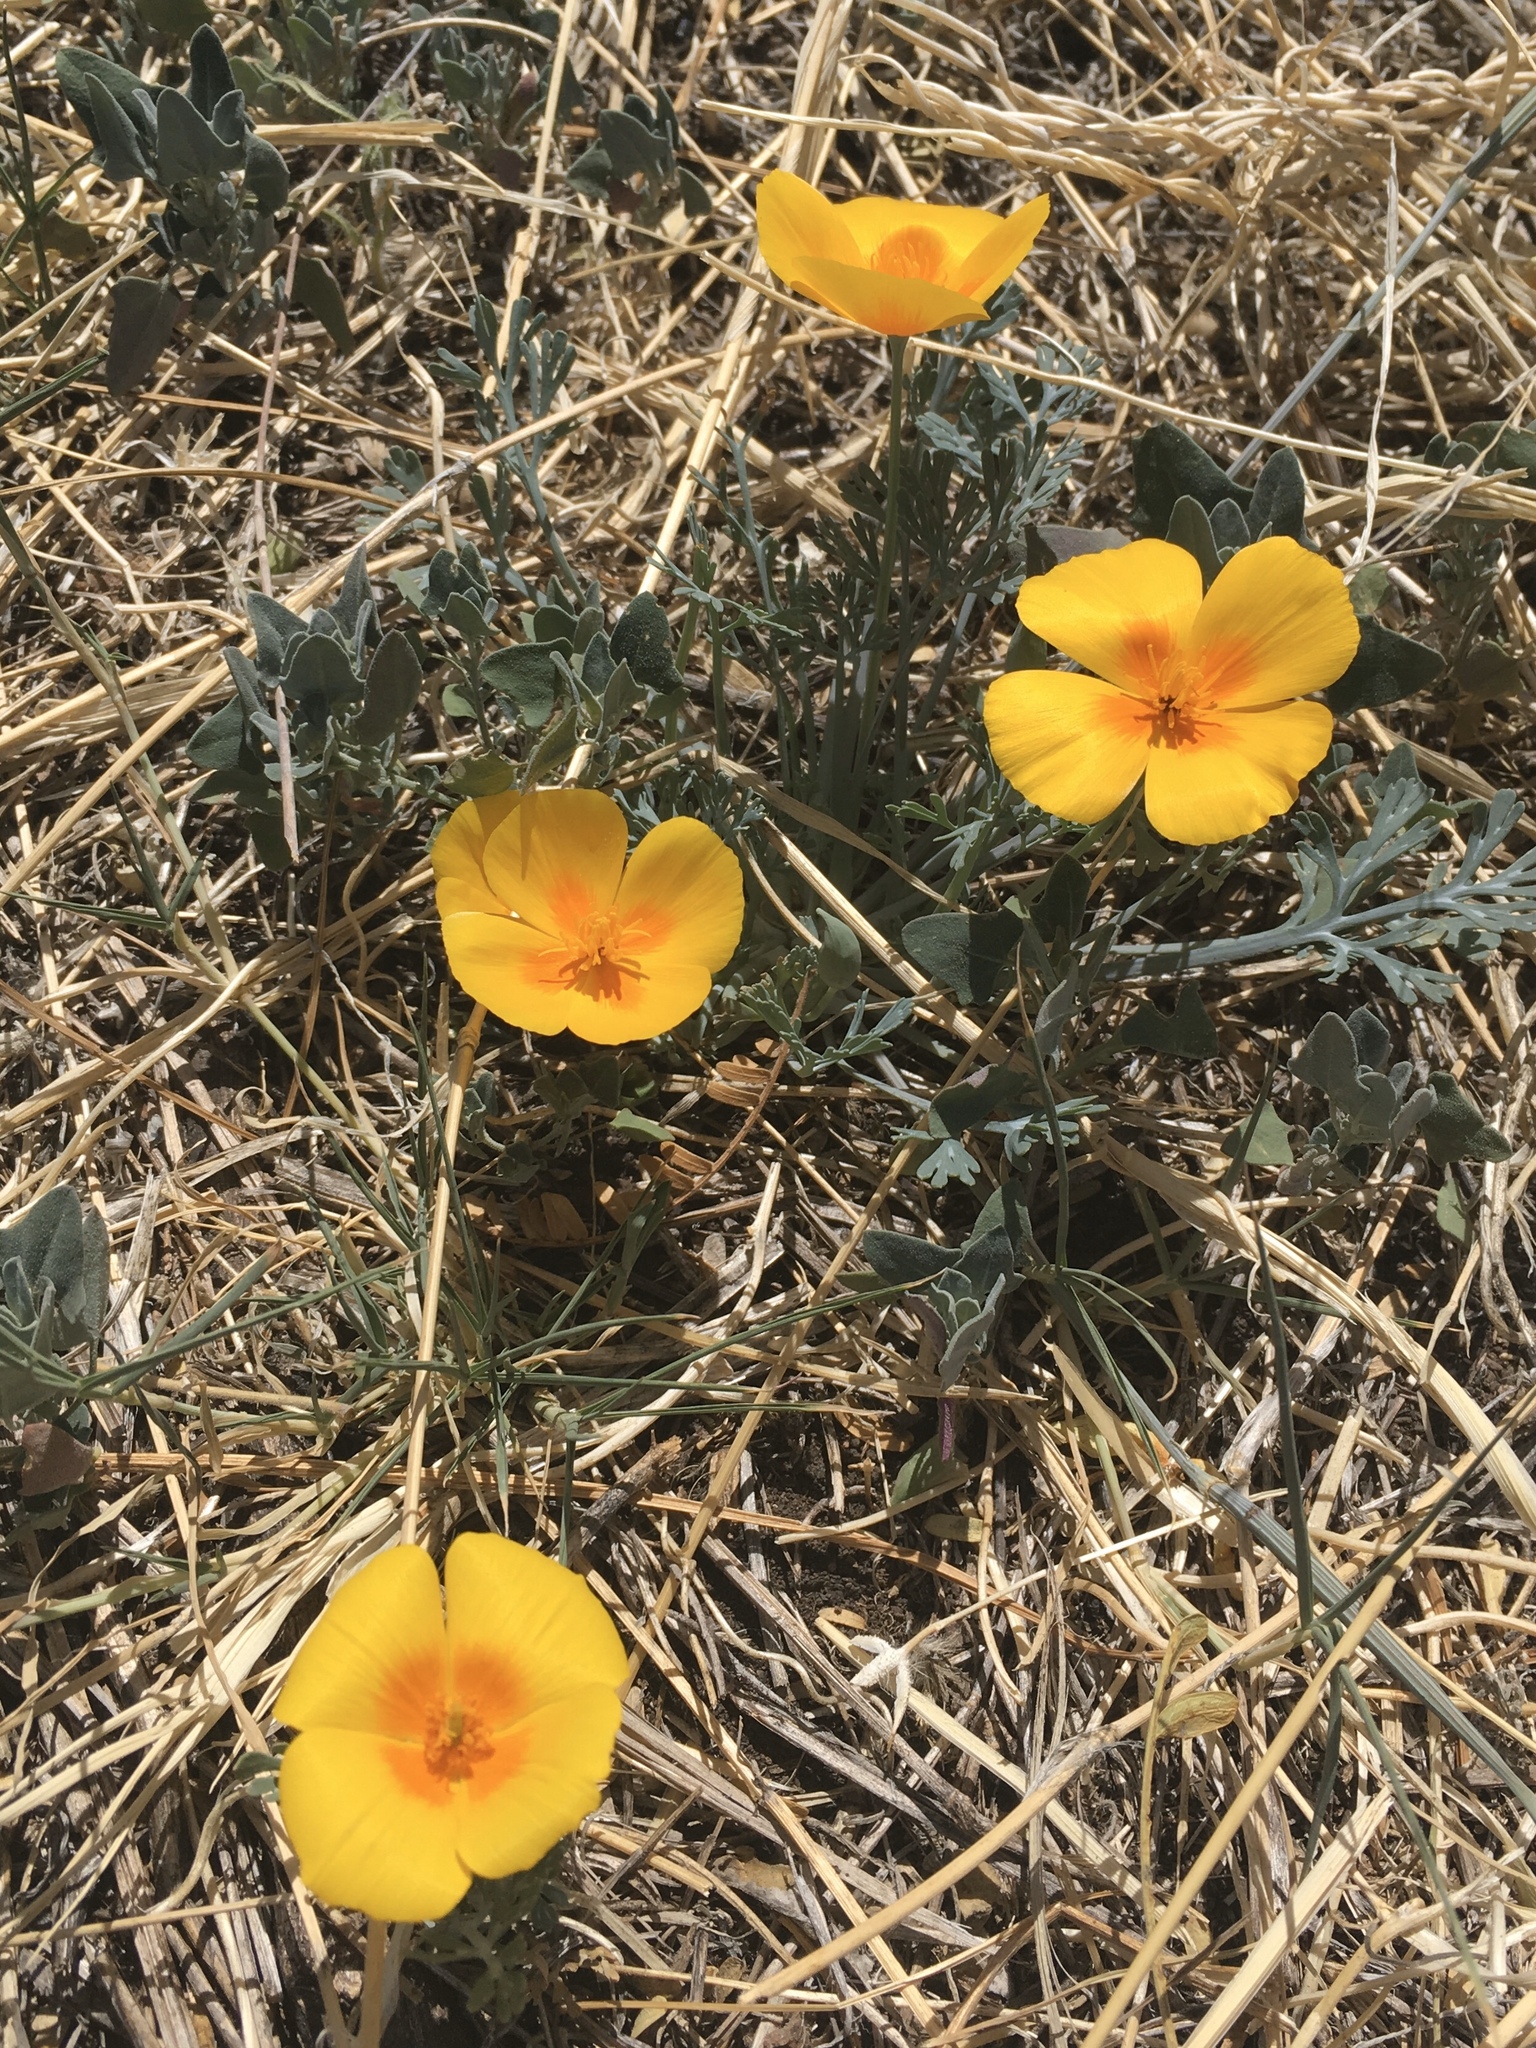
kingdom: Plantae
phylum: Tracheophyta
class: Magnoliopsida
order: Ranunculales
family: Papaveraceae
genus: Eschscholzia
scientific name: Eschscholzia californica
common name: California poppy
